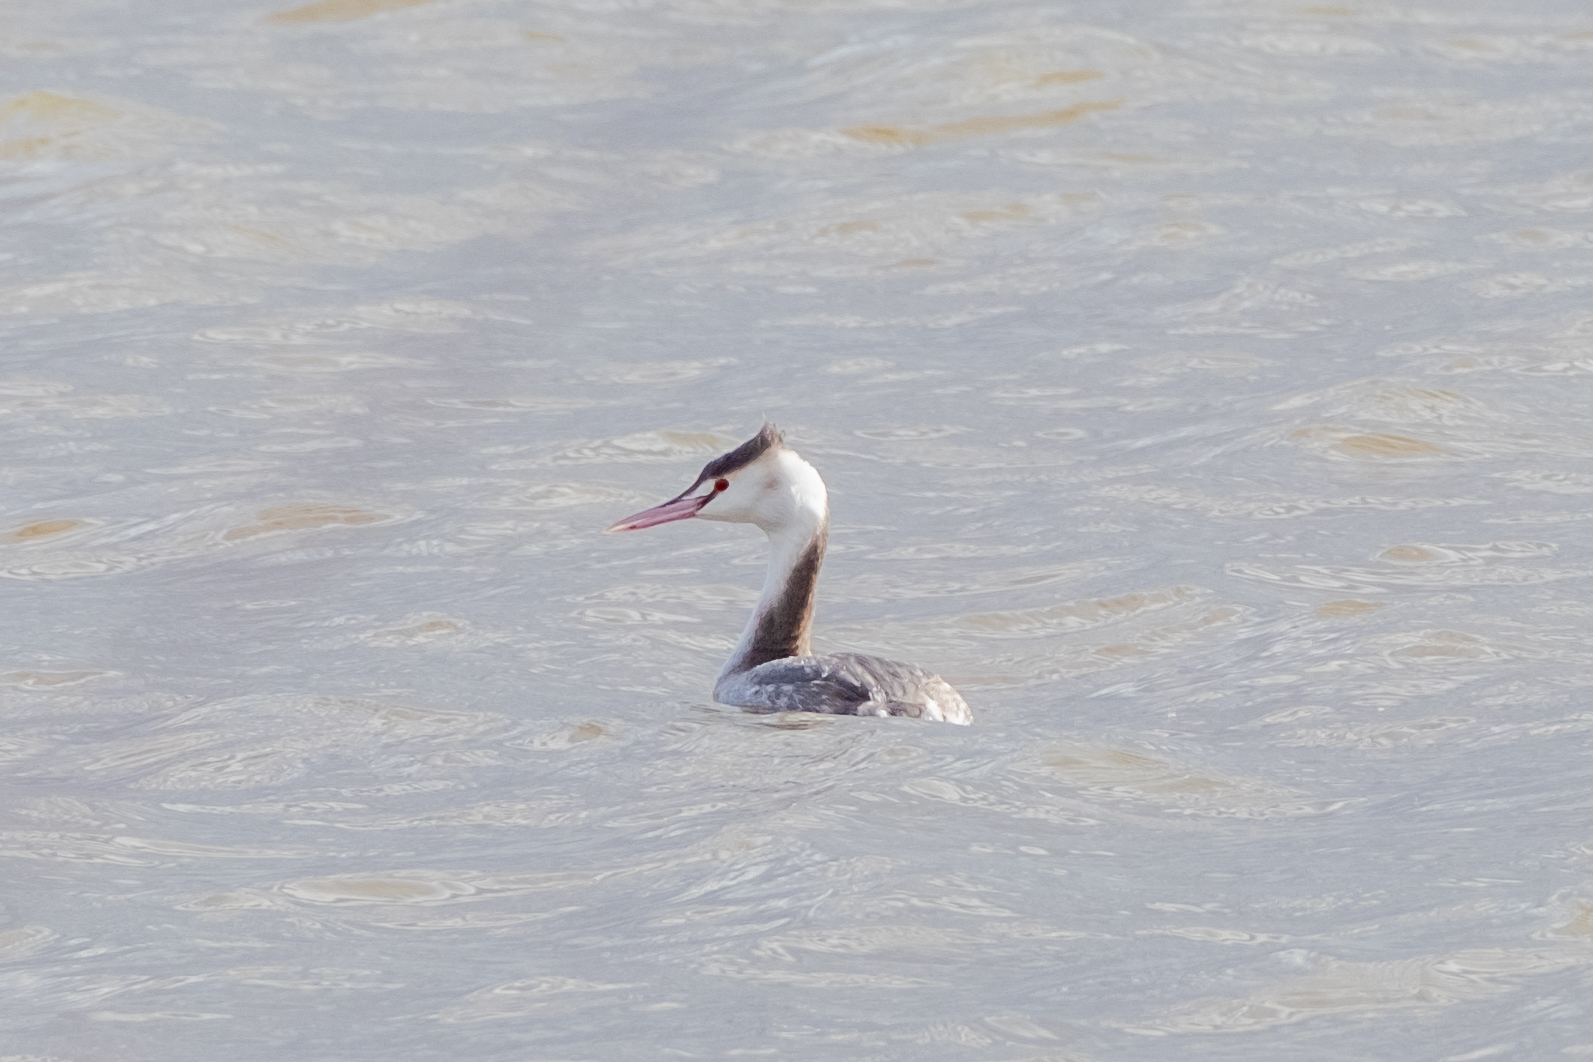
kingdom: Animalia
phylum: Chordata
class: Aves
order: Podicipediformes
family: Podicipedidae
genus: Podiceps
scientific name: Podiceps cristatus
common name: Great crested grebe
